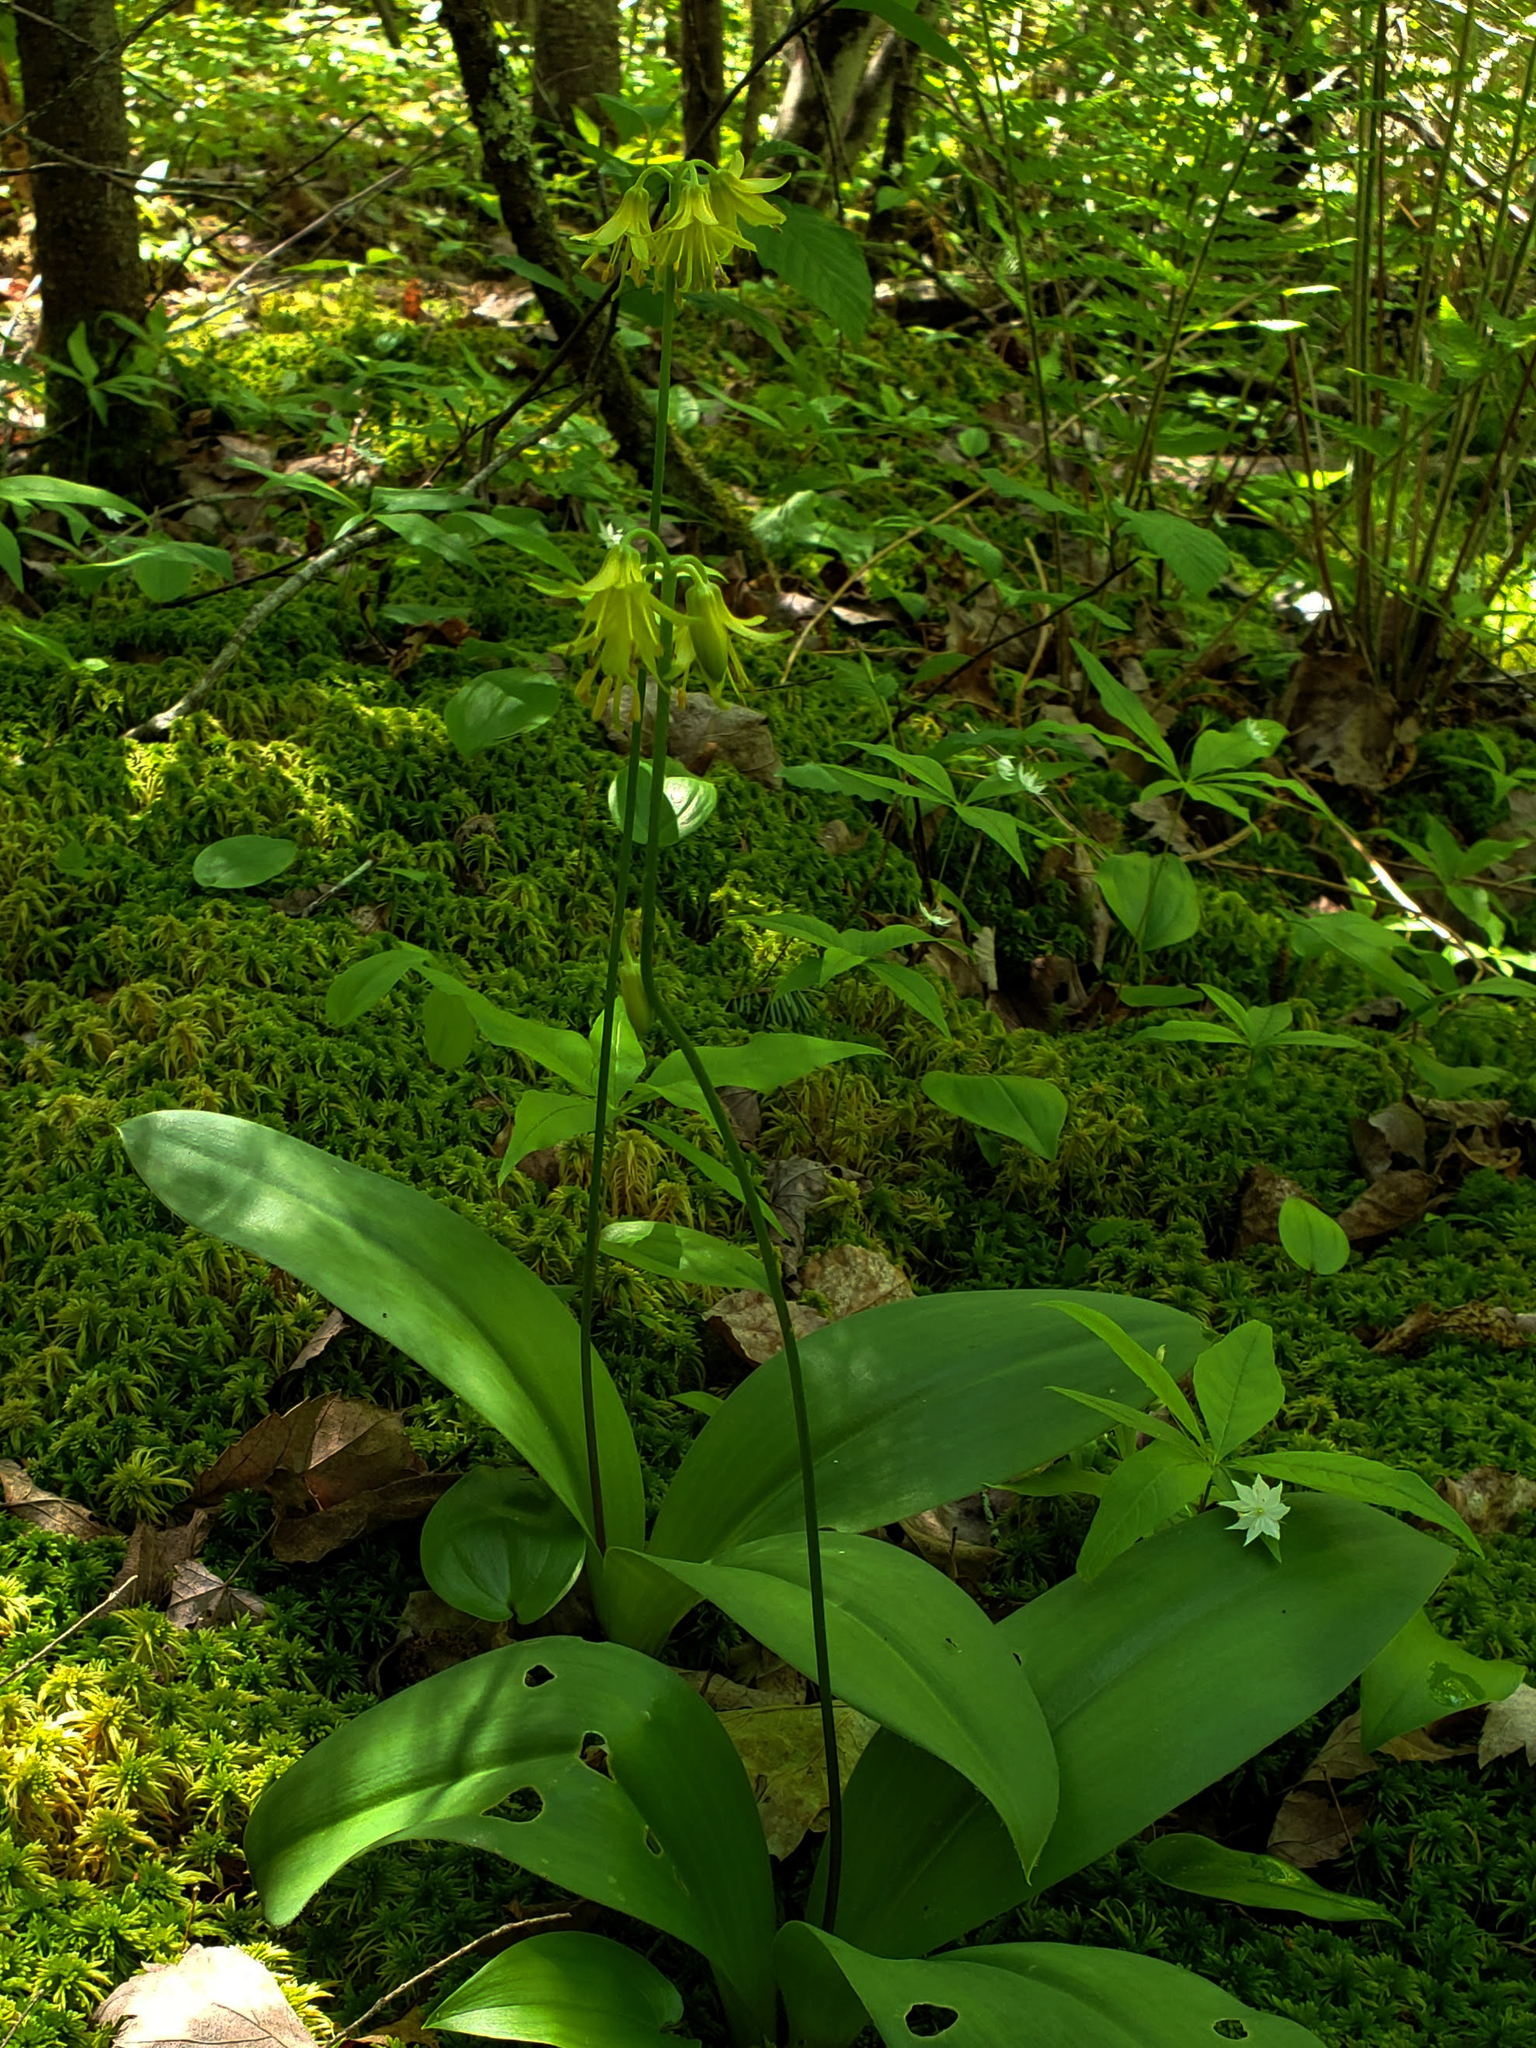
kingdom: Plantae
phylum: Tracheophyta
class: Liliopsida
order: Liliales
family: Liliaceae
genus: Clintonia
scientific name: Clintonia borealis
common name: Yellow clintonia
